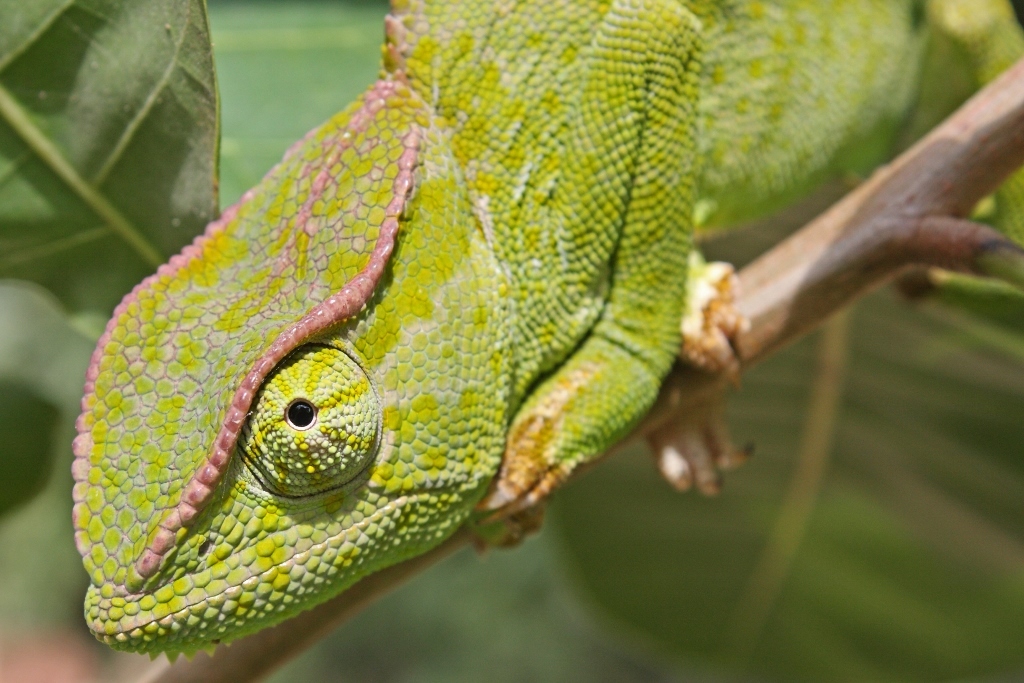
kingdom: Animalia
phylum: Chordata
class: Squamata
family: Chamaeleonidae
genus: Chamaeleo
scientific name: Chamaeleo gracilis
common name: Graceful chameleon
